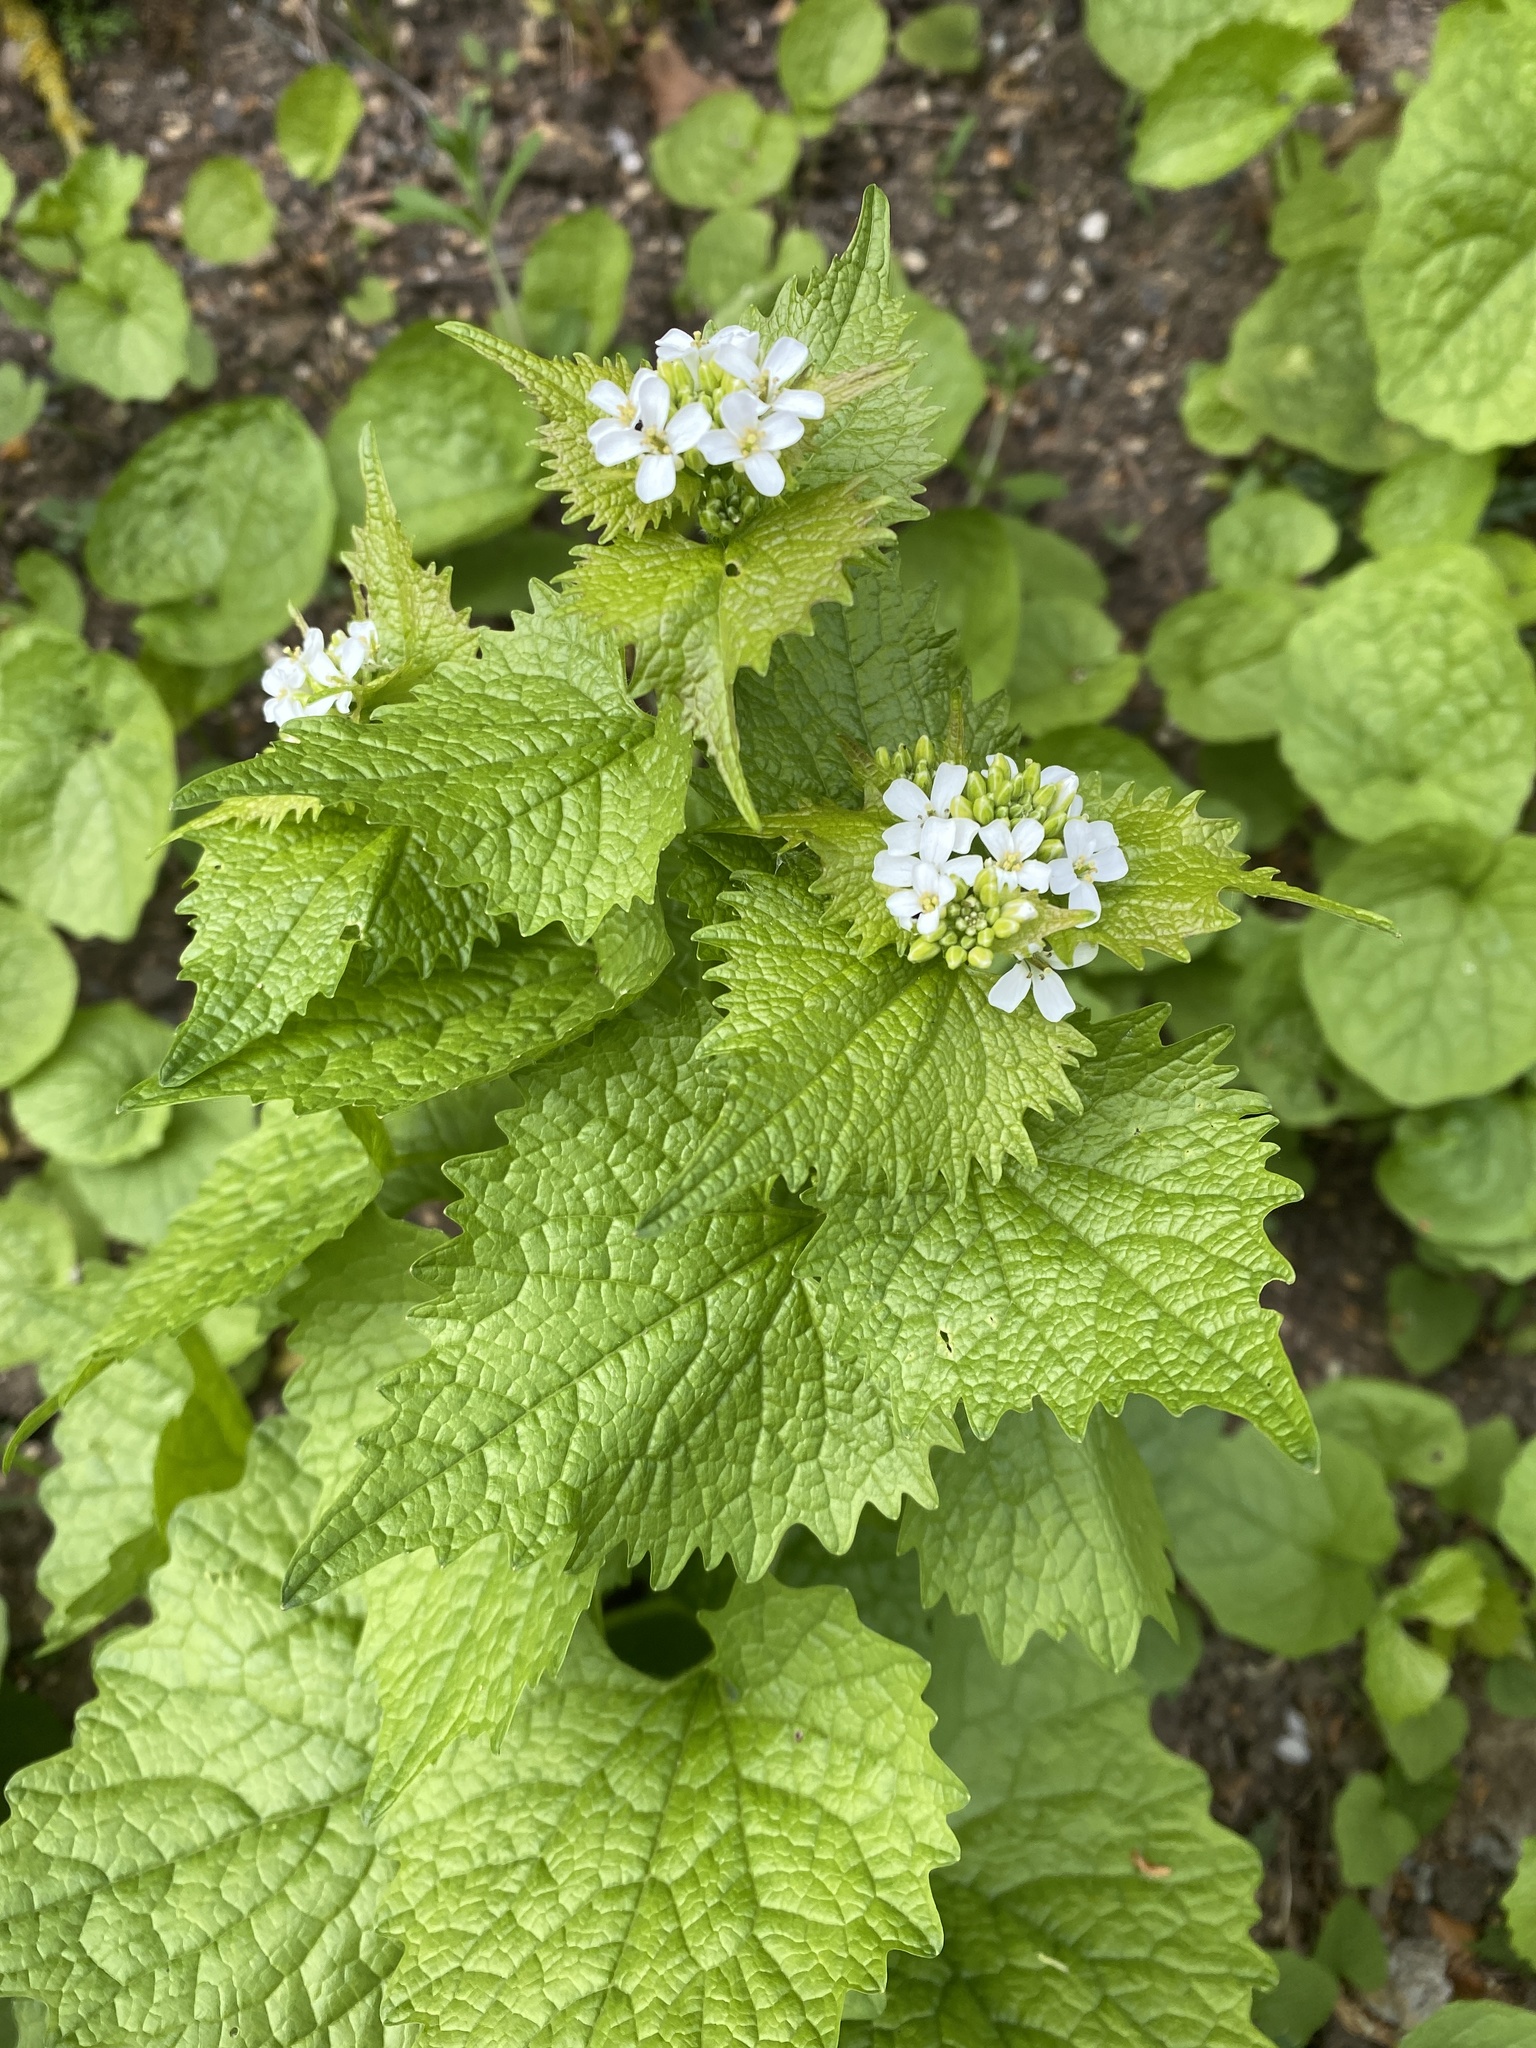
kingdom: Plantae
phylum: Tracheophyta
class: Magnoliopsida
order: Brassicales
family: Brassicaceae
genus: Alliaria
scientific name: Alliaria petiolata
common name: Garlic mustard
